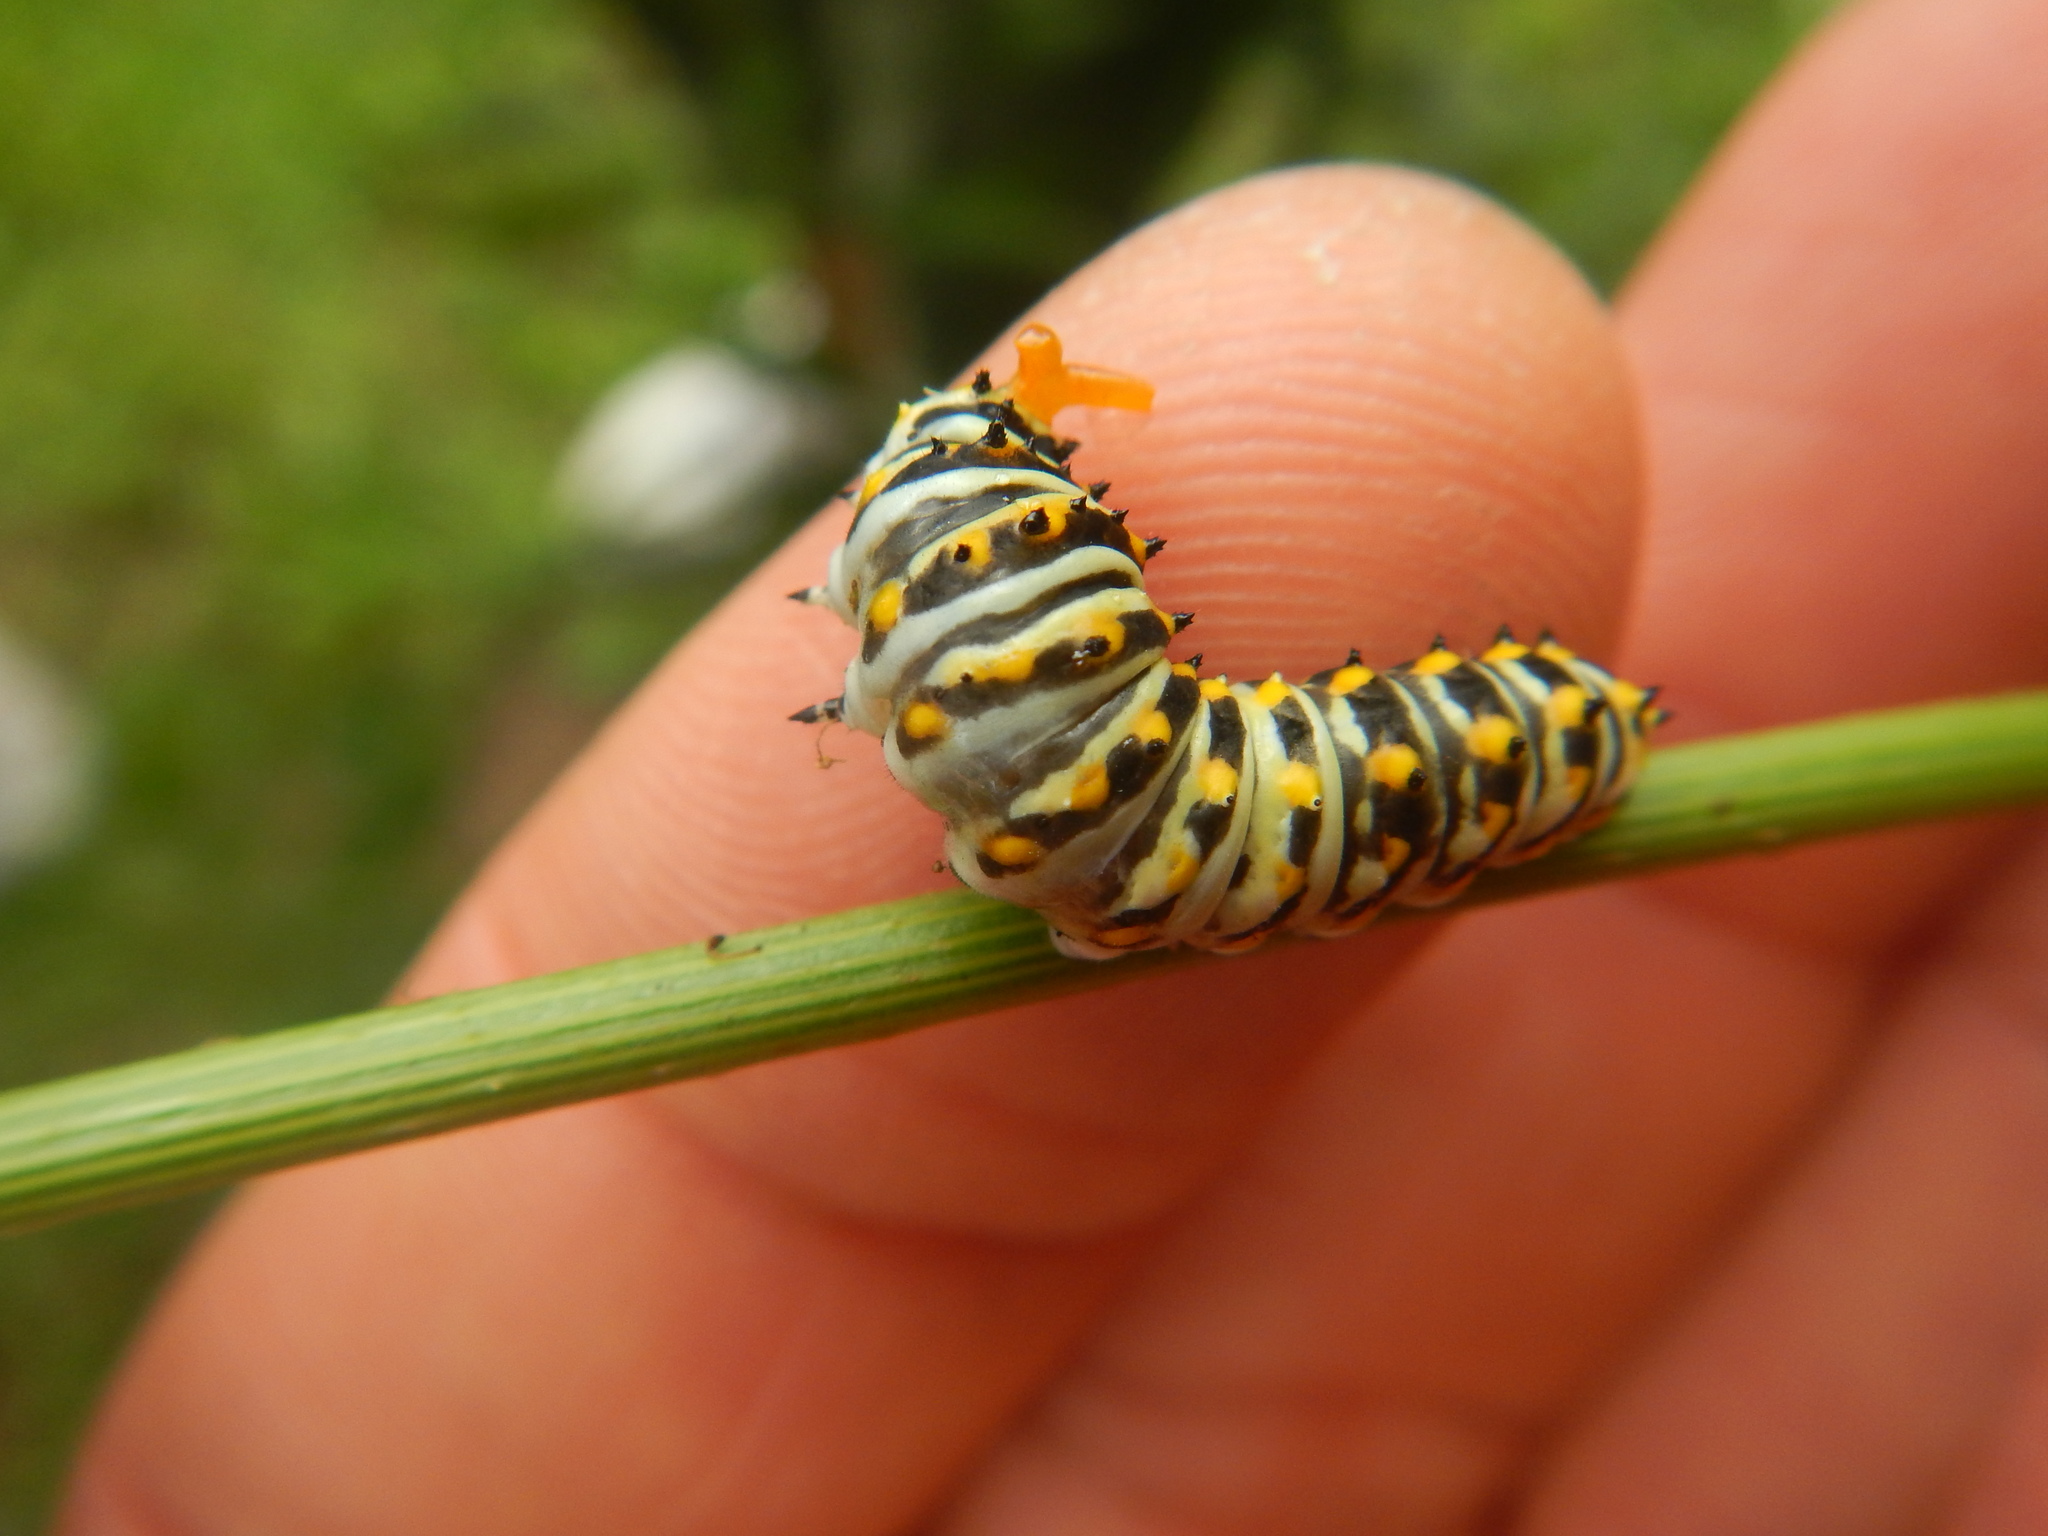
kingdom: Animalia
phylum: Arthropoda
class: Insecta
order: Lepidoptera
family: Papilionidae
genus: Papilio
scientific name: Papilio polyxenes
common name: Black swallowtail
